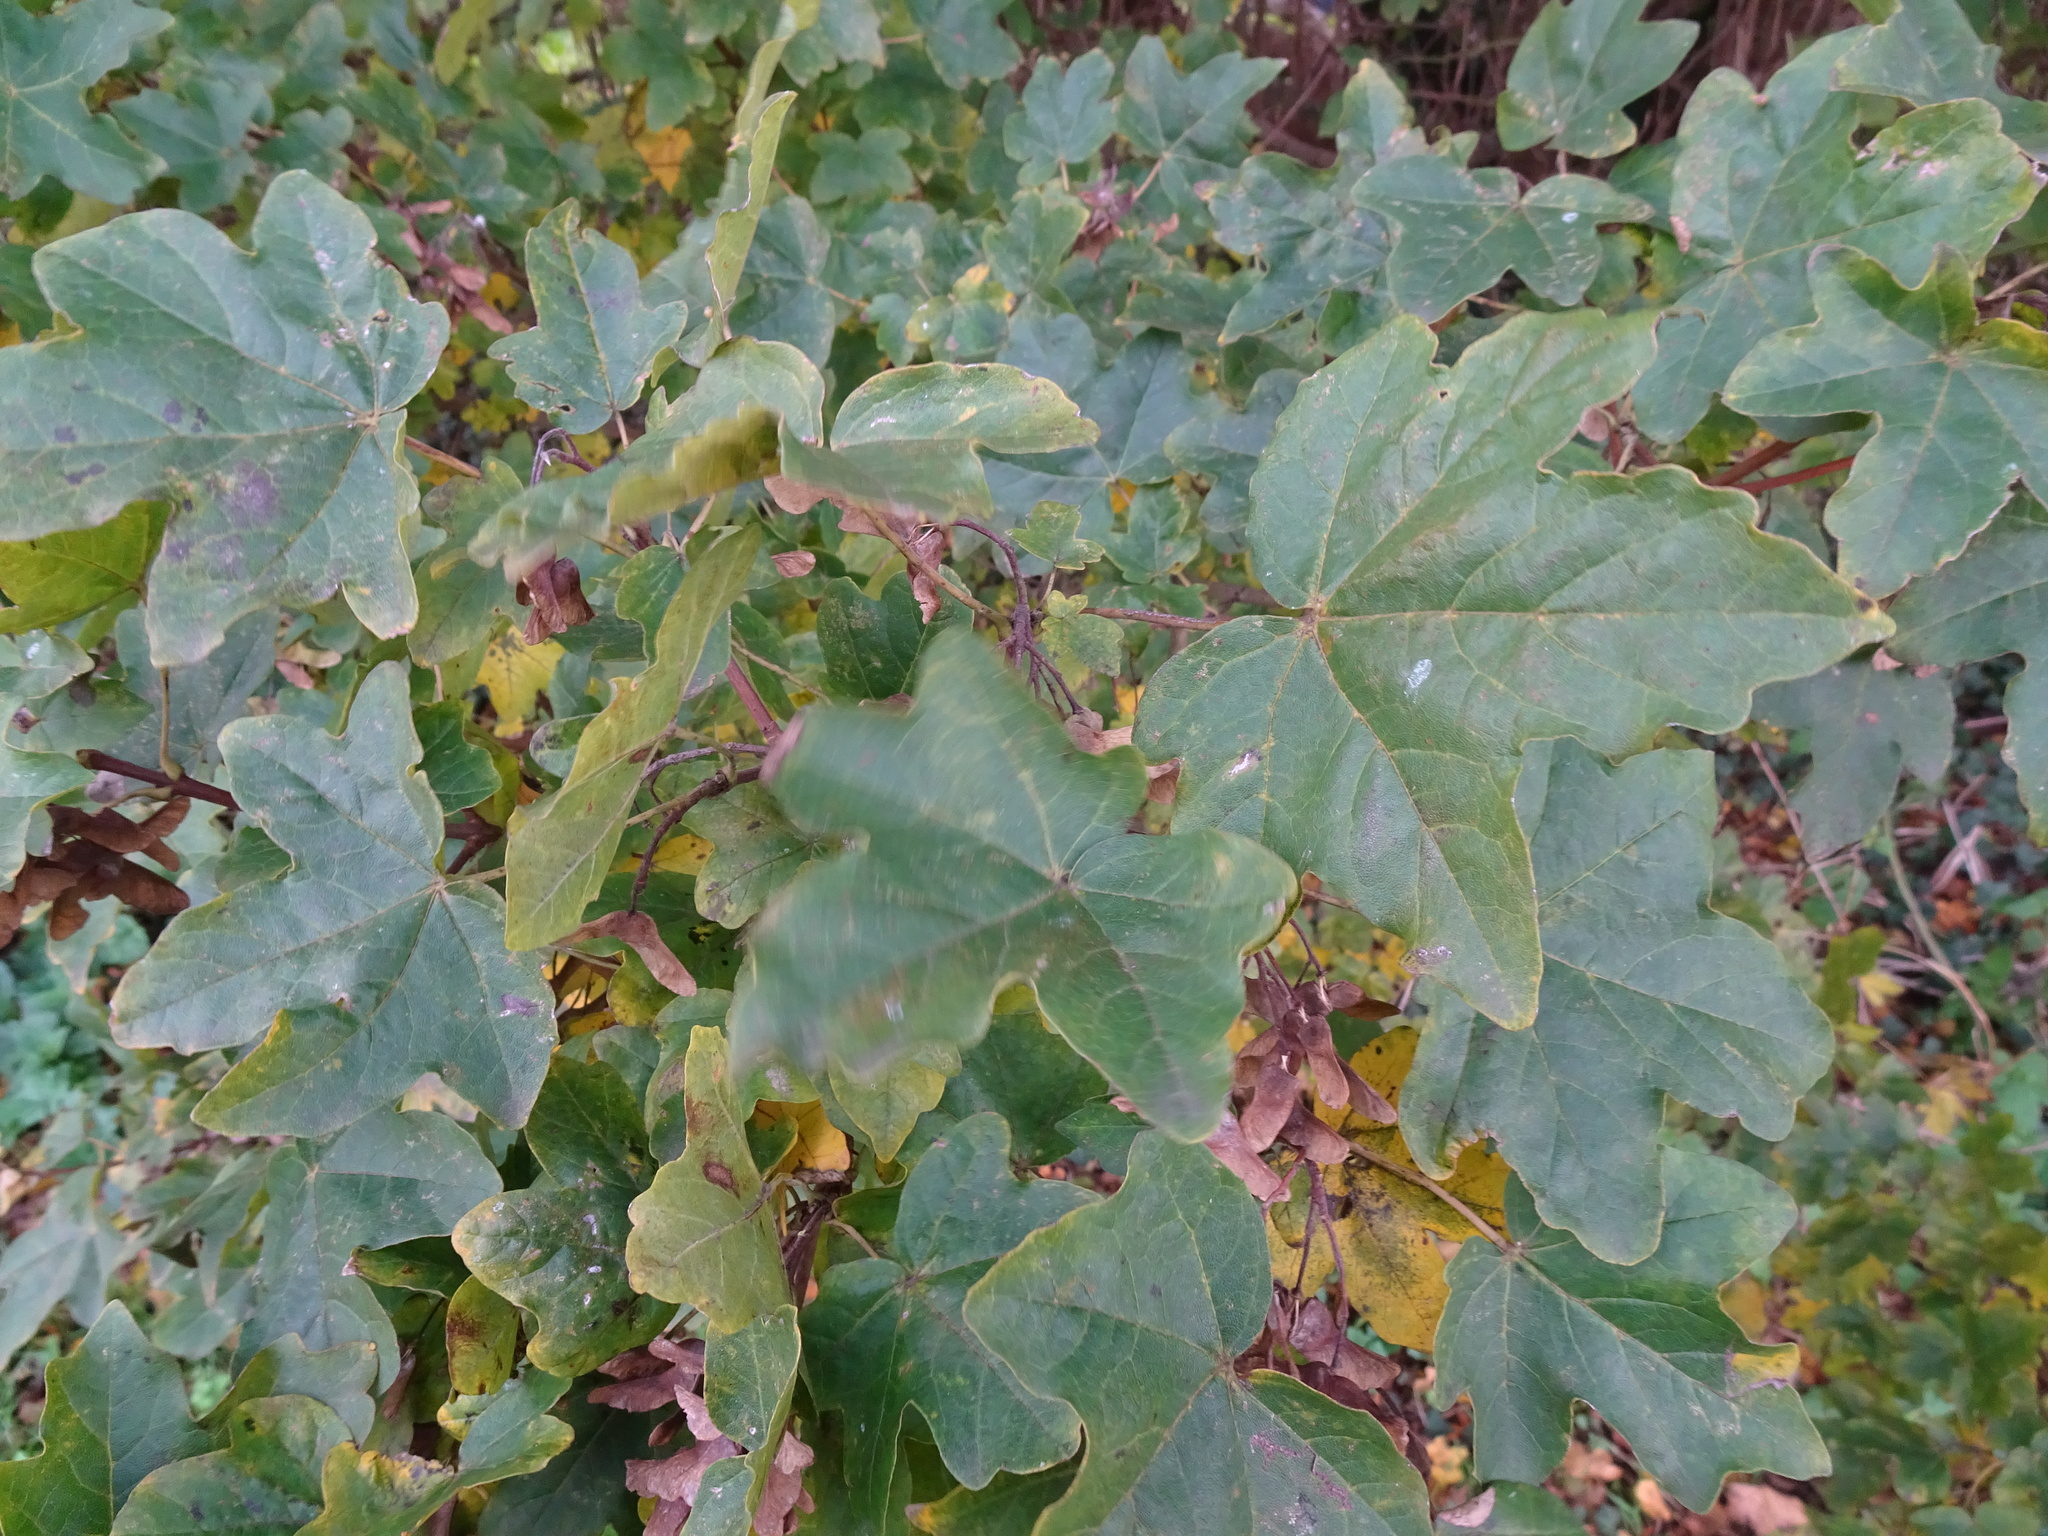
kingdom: Plantae
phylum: Tracheophyta
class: Magnoliopsida
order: Sapindales
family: Sapindaceae
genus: Acer
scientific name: Acer campestre
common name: Field maple
